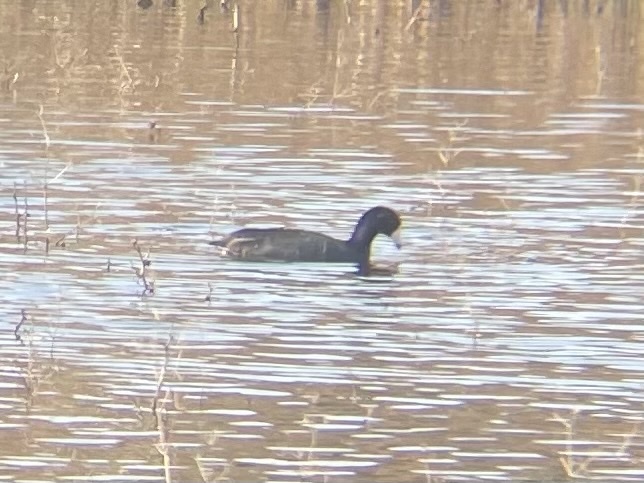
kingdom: Animalia
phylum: Chordata
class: Aves
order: Gruiformes
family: Rallidae
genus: Fulica
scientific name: Fulica americana
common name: American coot
